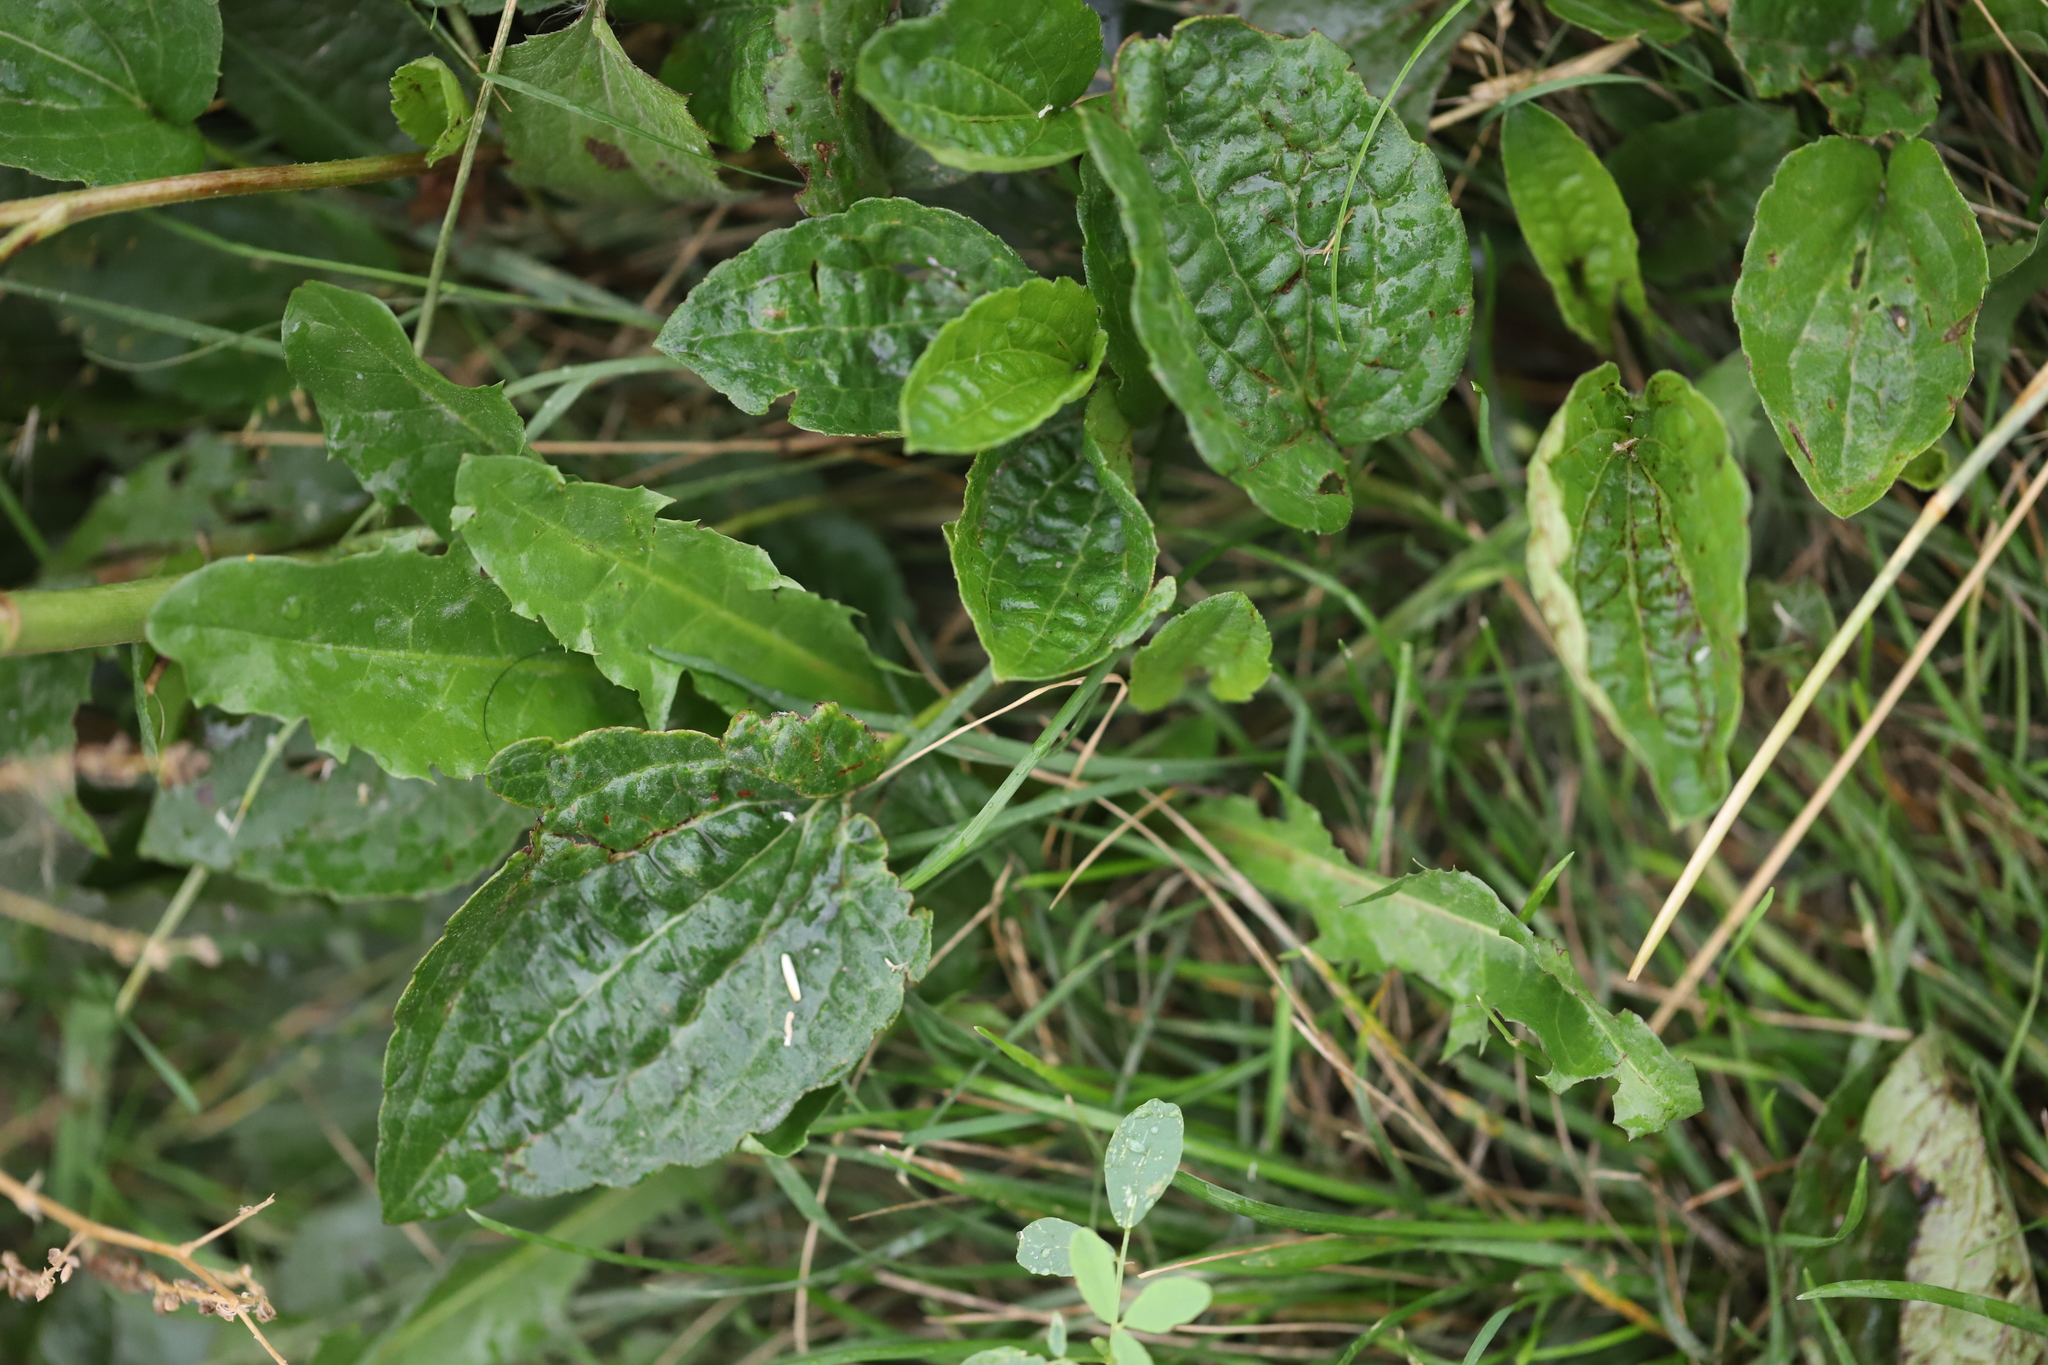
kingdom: Plantae
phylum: Tracheophyta
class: Magnoliopsida
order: Lamiales
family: Plantaginaceae
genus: Plantago
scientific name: Plantago major
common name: Common plantain
